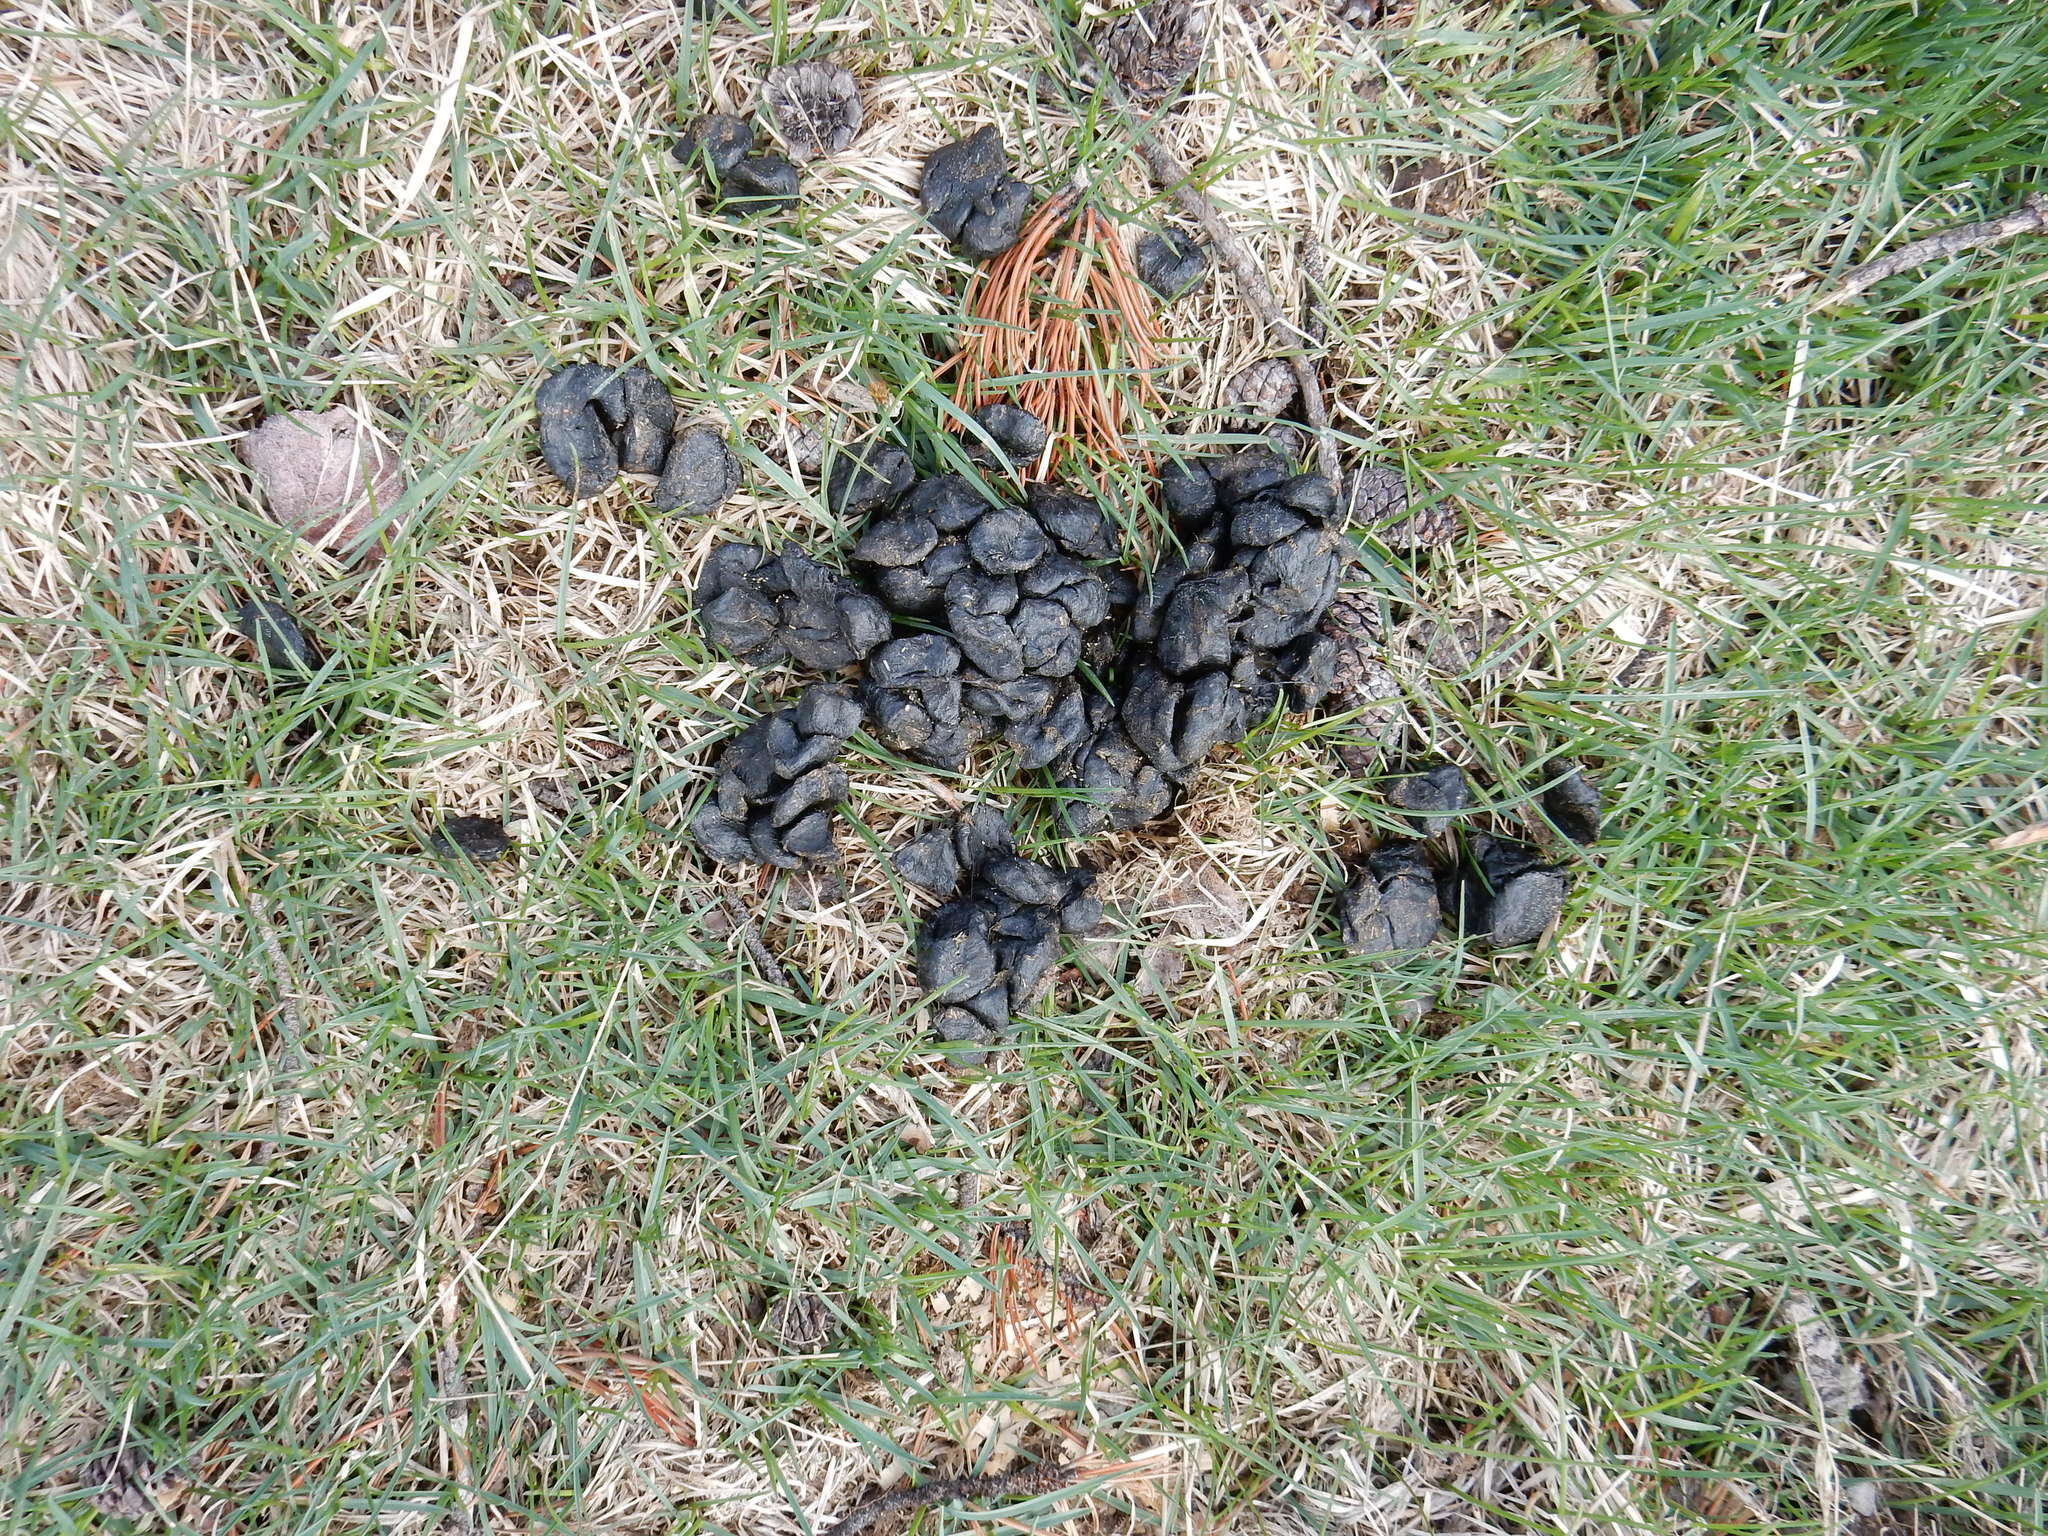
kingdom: Animalia
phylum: Chordata
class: Mammalia
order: Artiodactyla
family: Cervidae
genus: Cervus
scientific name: Cervus elaphus
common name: Red deer
